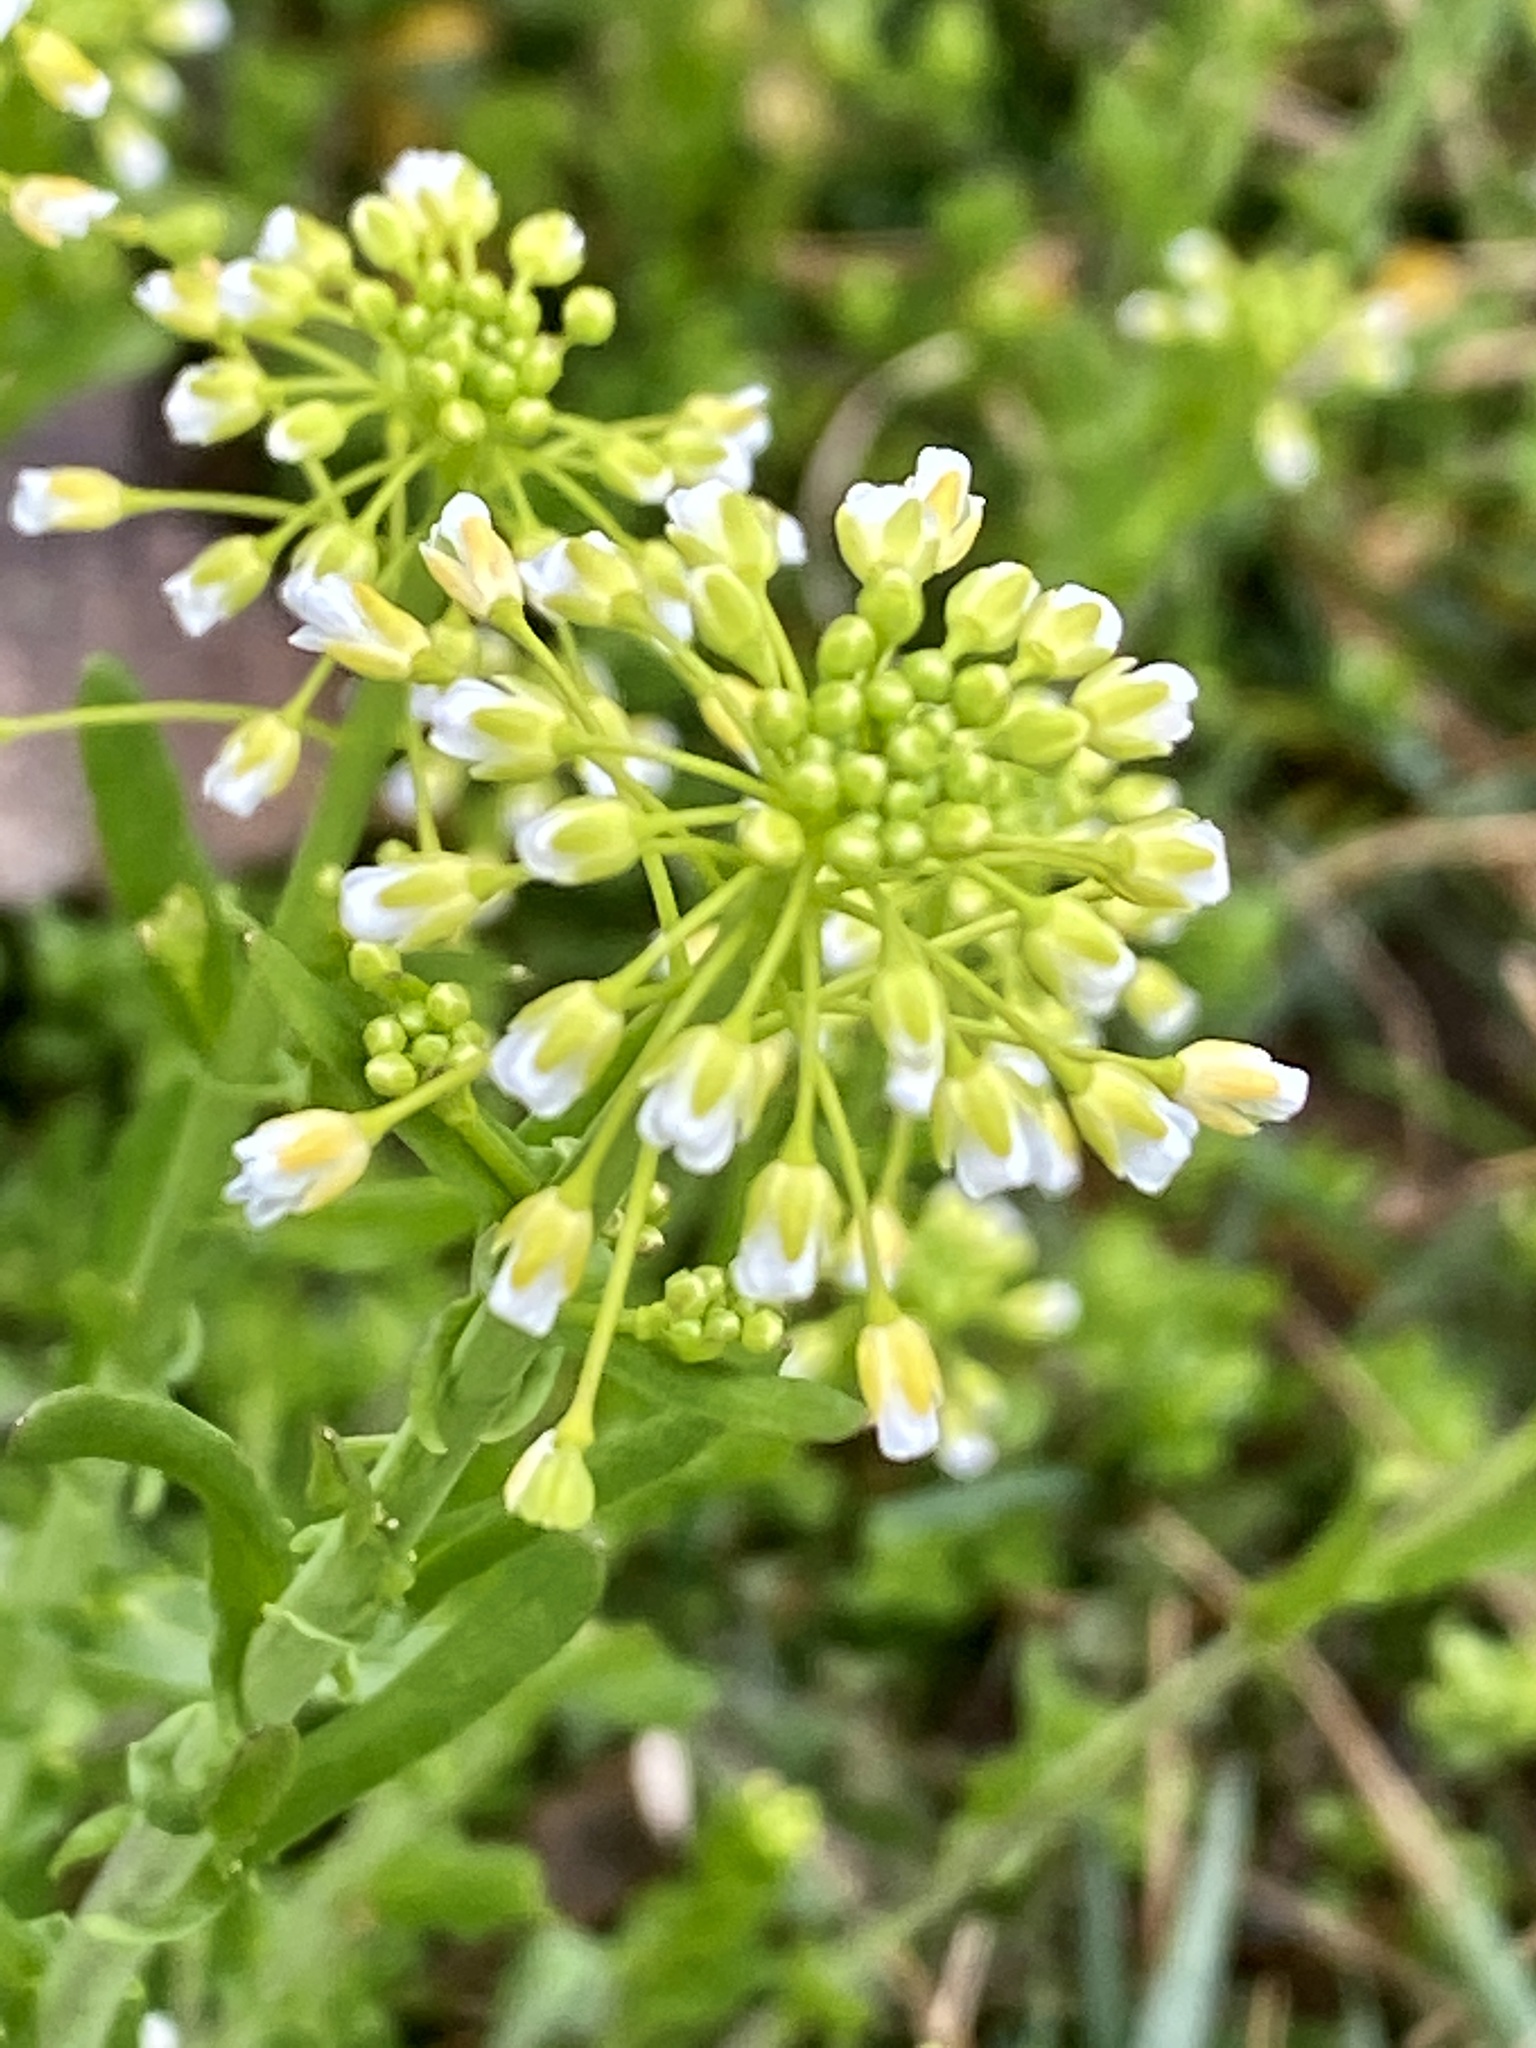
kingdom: Plantae
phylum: Tracheophyta
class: Magnoliopsida
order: Brassicales
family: Brassicaceae
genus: Mummenhoffia
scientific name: Mummenhoffia alliacea
